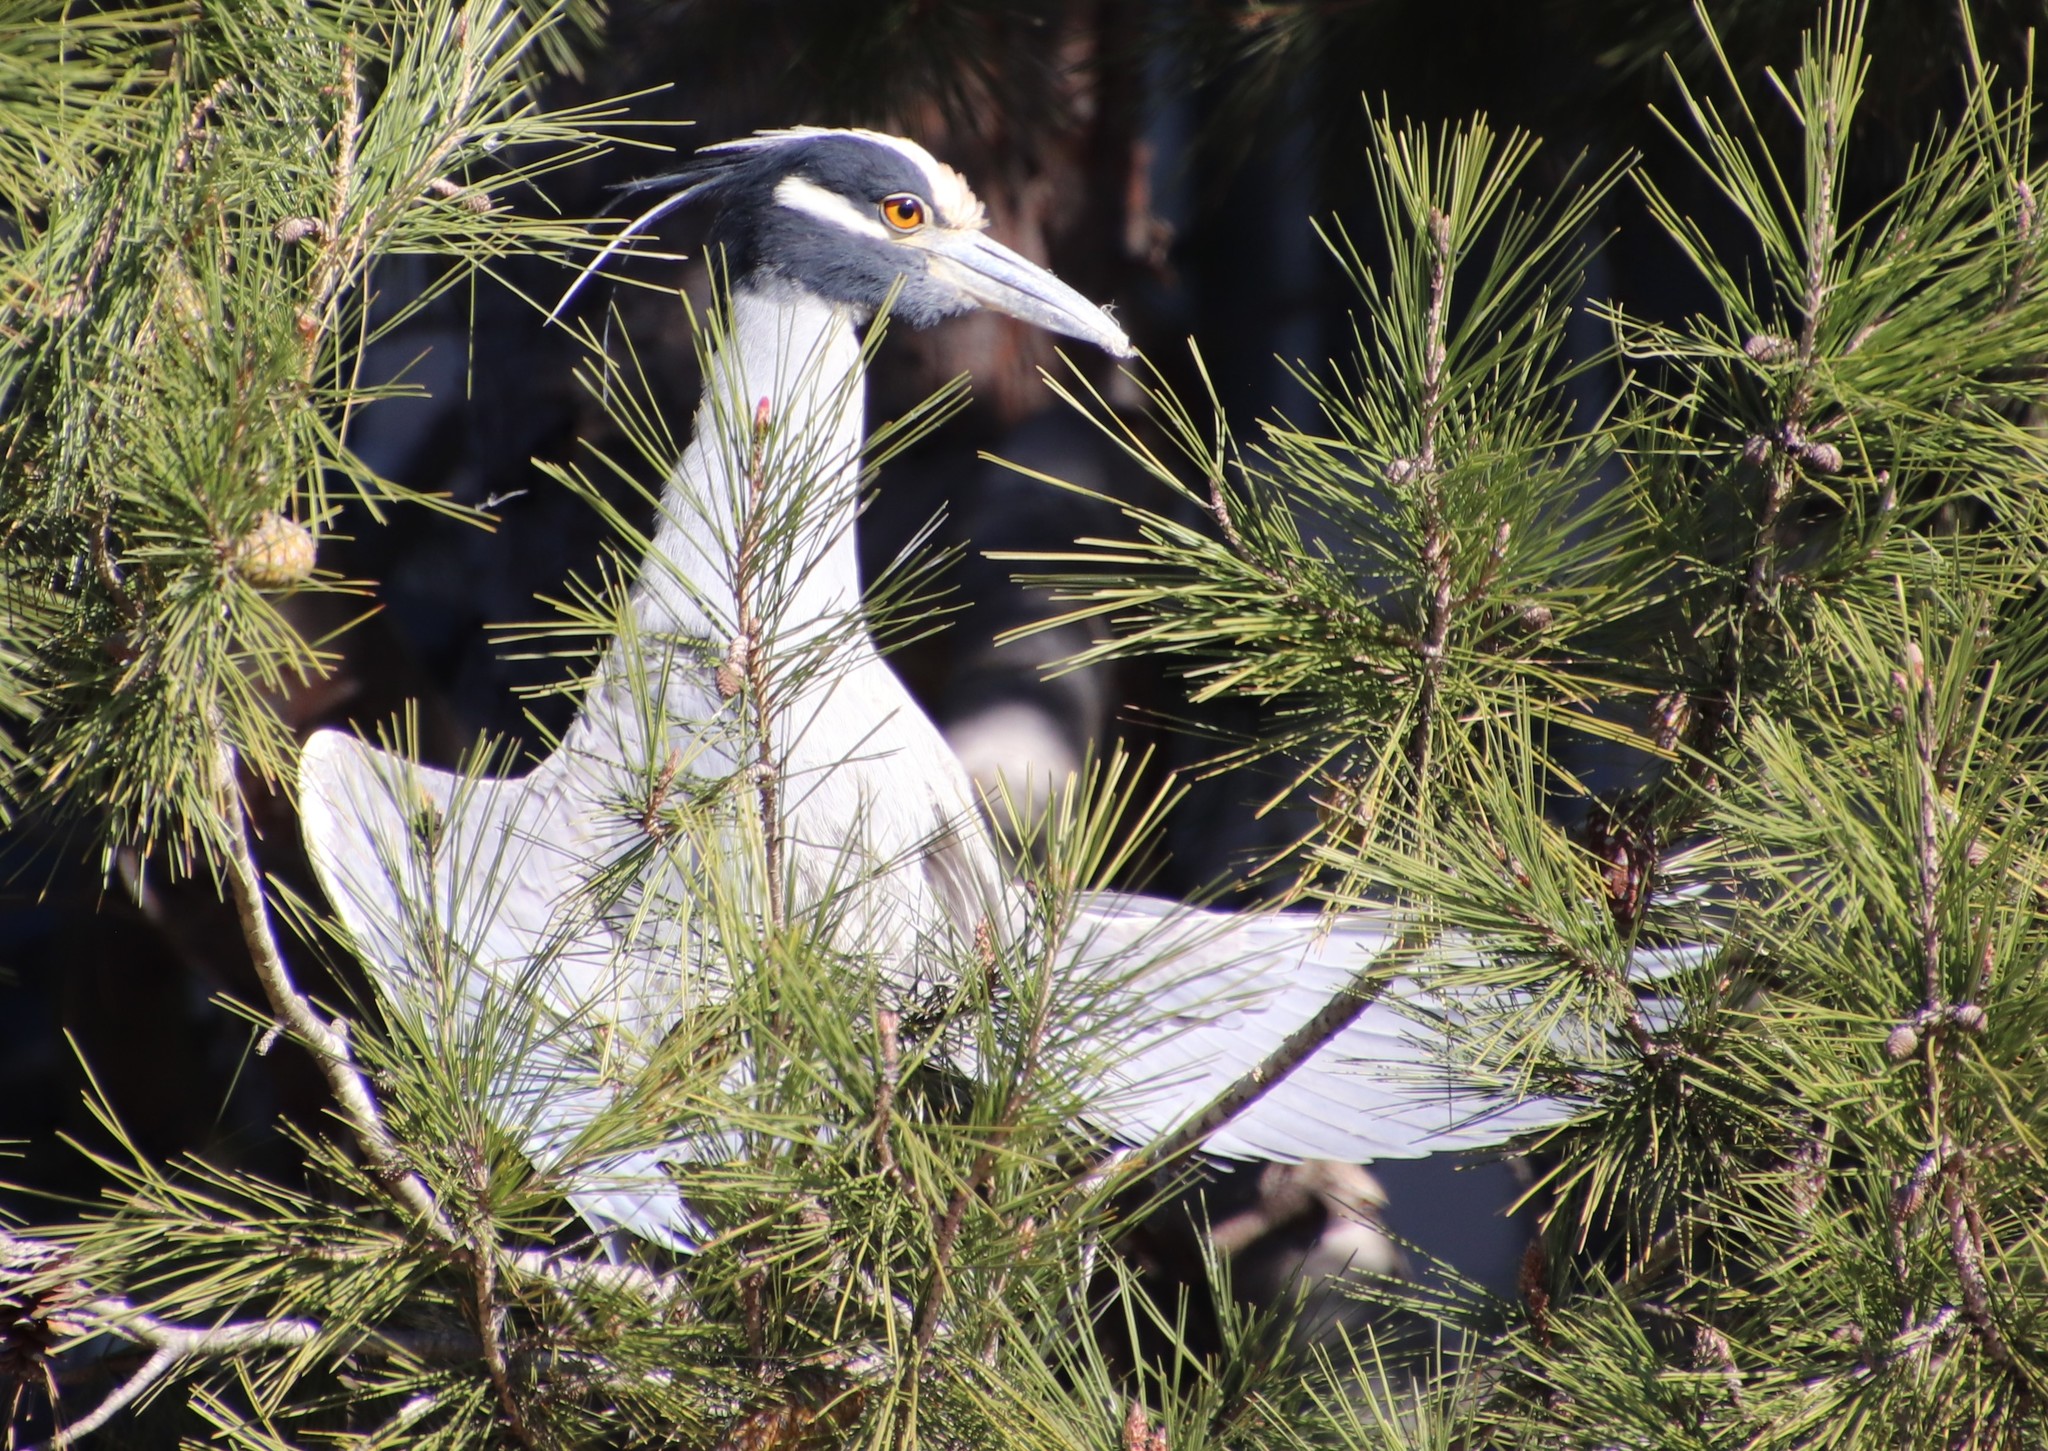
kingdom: Animalia
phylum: Chordata
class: Aves
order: Pelecaniformes
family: Ardeidae
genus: Nyctanassa
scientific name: Nyctanassa violacea
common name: Yellow-crowned night heron
